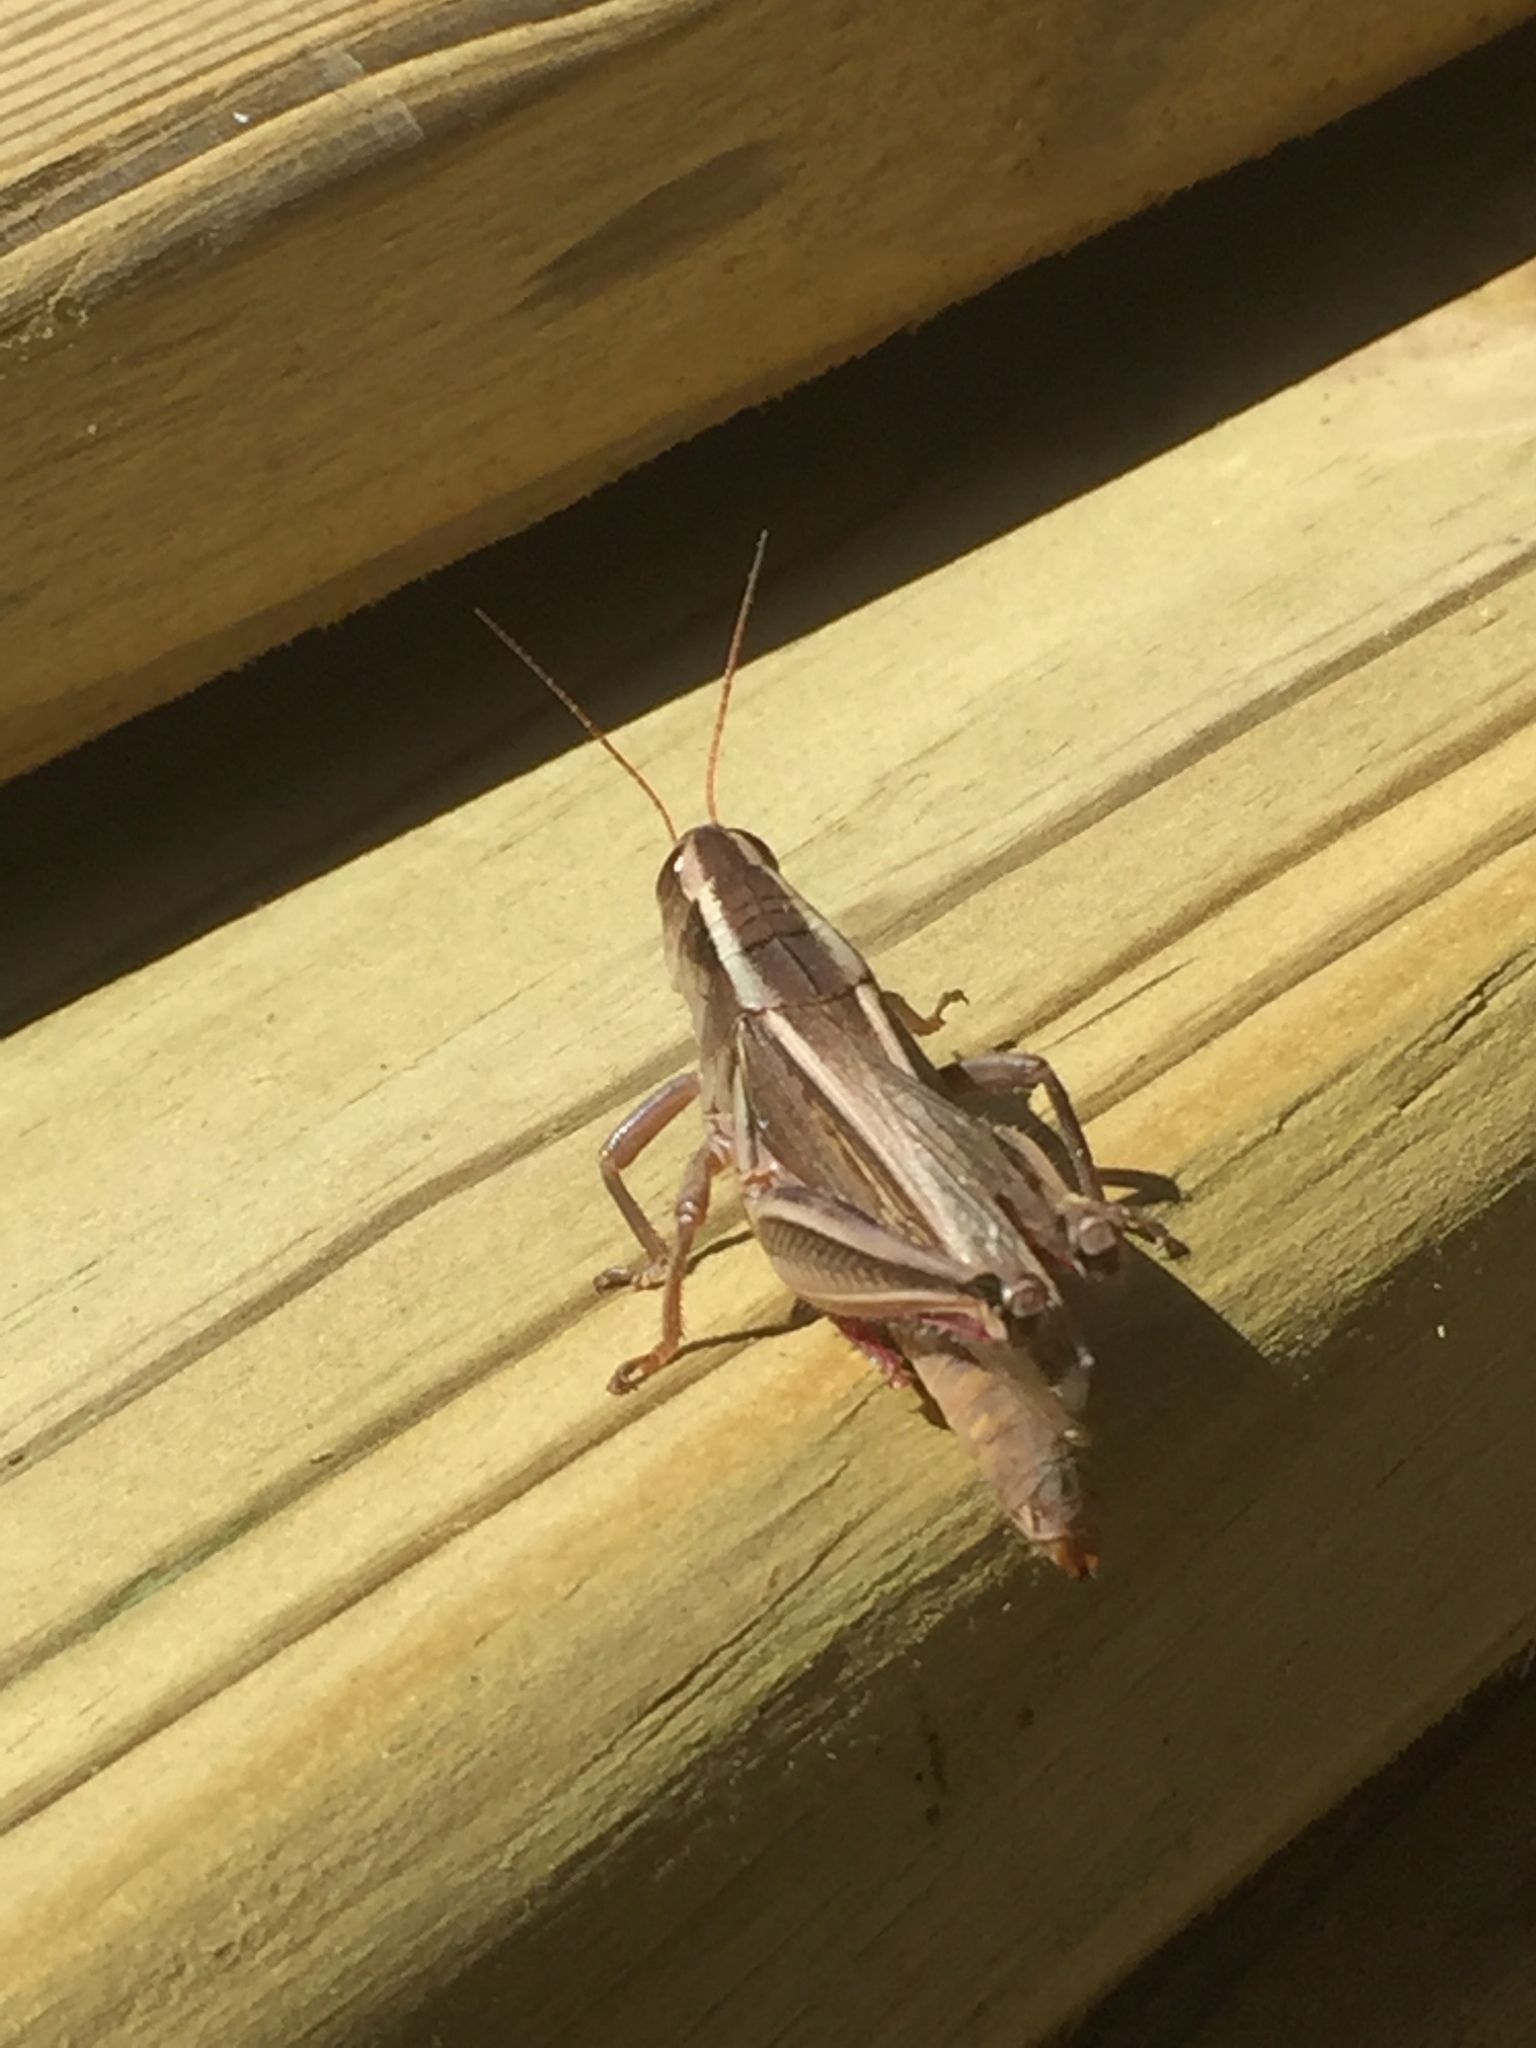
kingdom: Animalia
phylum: Arthropoda
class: Insecta
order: Orthoptera
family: Acrididae
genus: Melanoplus
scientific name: Melanoplus bivittatus
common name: Two-striped grasshopper
